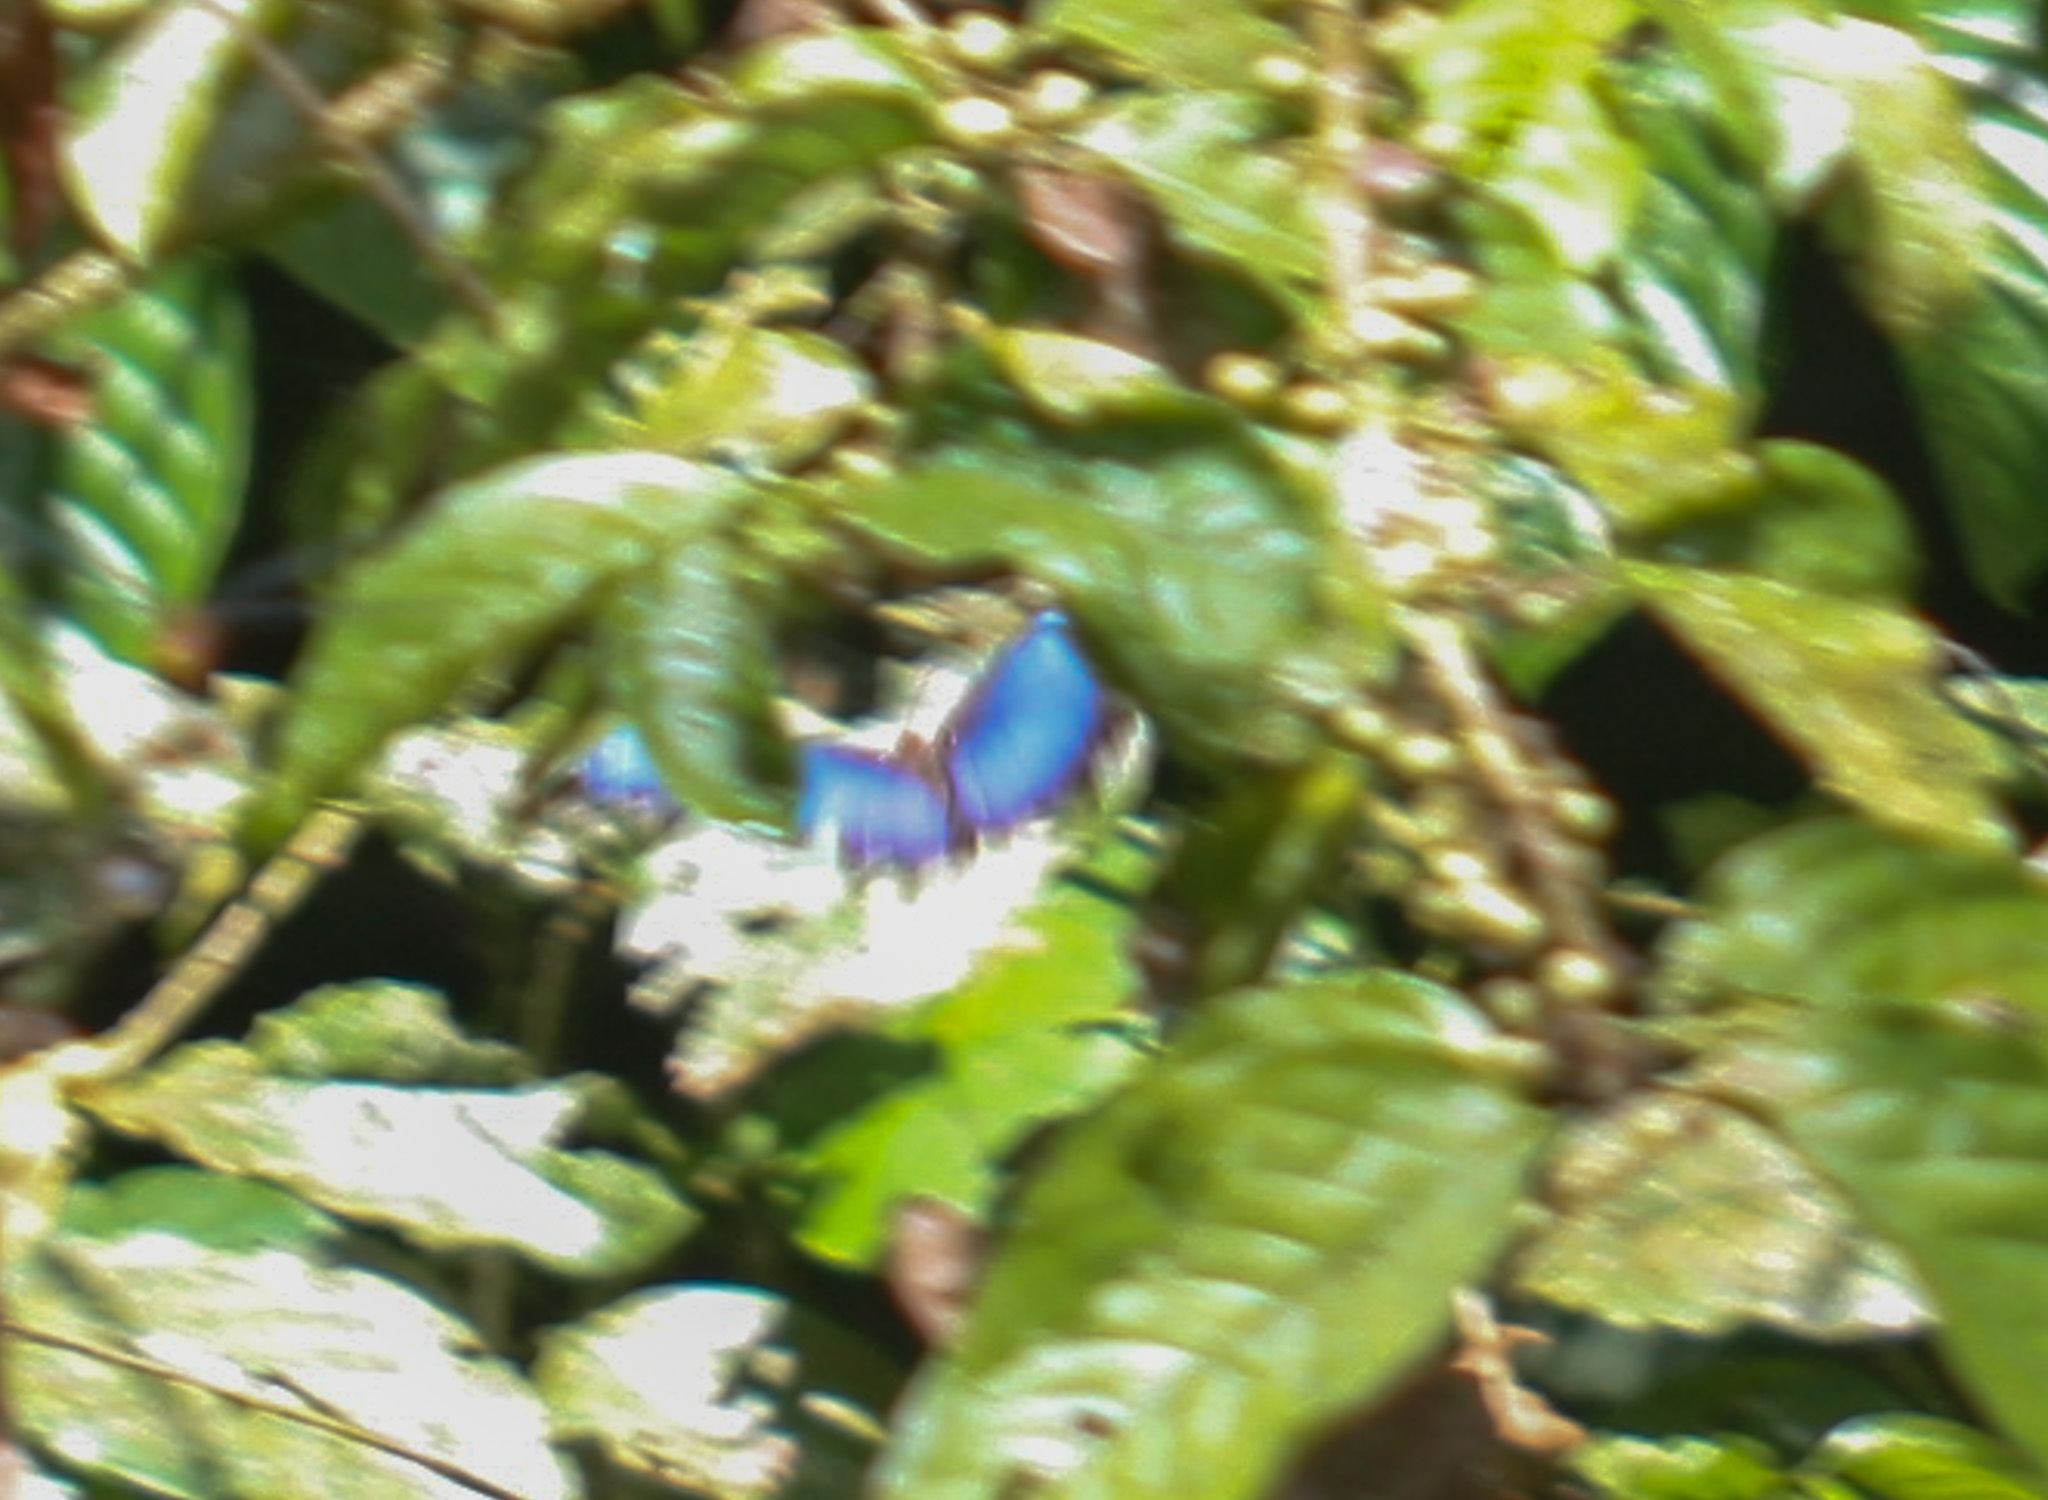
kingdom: Animalia
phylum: Arthropoda
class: Insecta
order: Lepidoptera
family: Nymphalidae
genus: Morpho
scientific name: Morpho helenor
